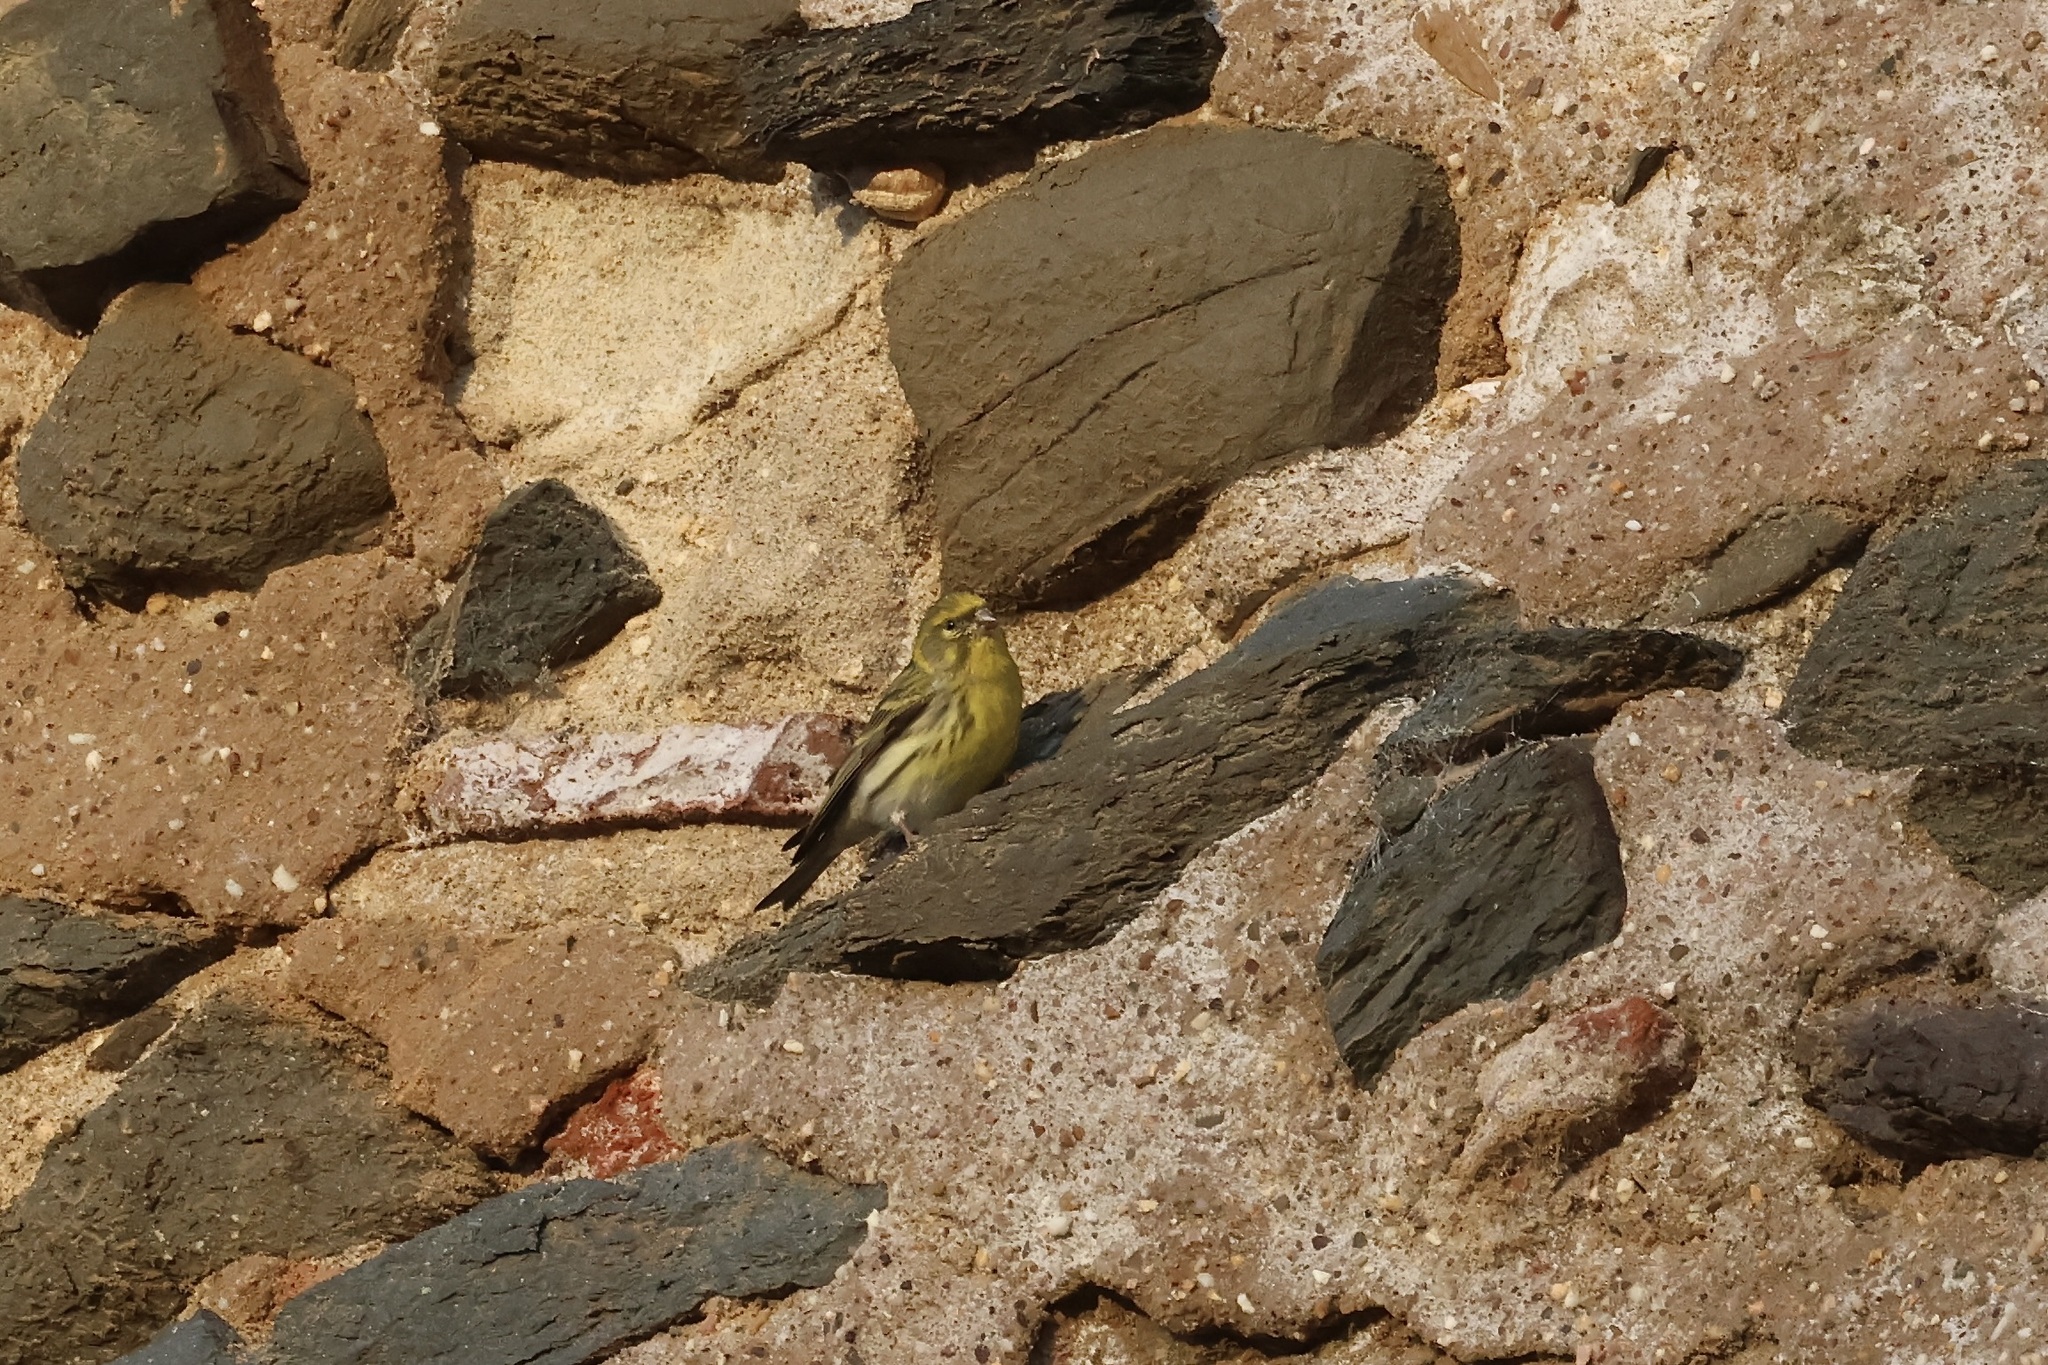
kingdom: Animalia
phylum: Chordata
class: Aves
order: Passeriformes
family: Fringillidae
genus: Serinus
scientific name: Serinus serinus
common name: European serin
